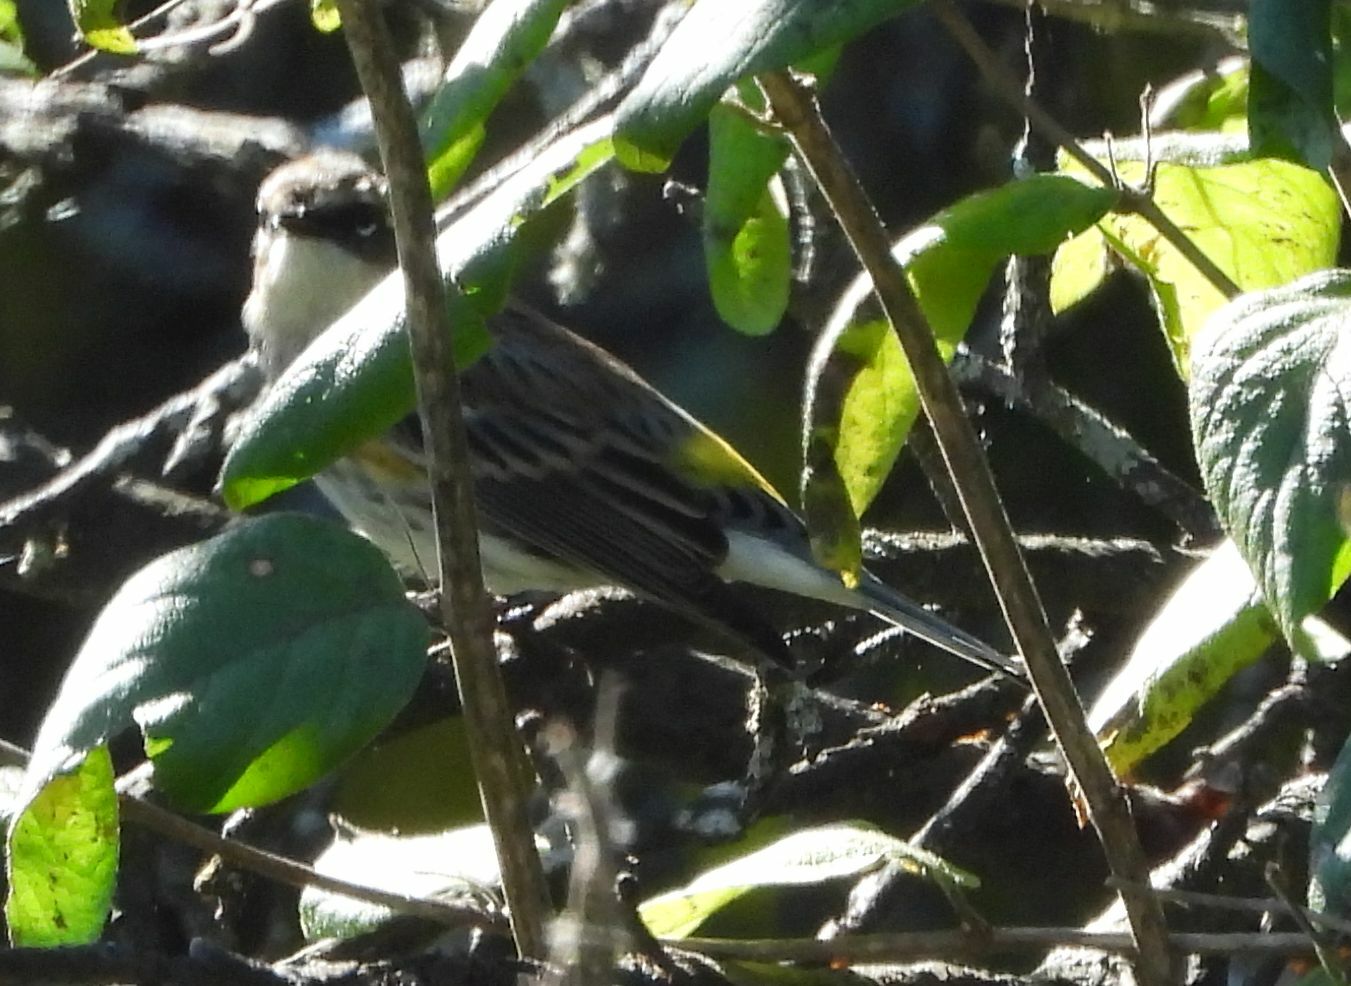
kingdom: Animalia
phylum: Chordata
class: Aves
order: Passeriformes
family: Parulidae
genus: Setophaga
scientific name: Setophaga coronata
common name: Myrtle warbler
